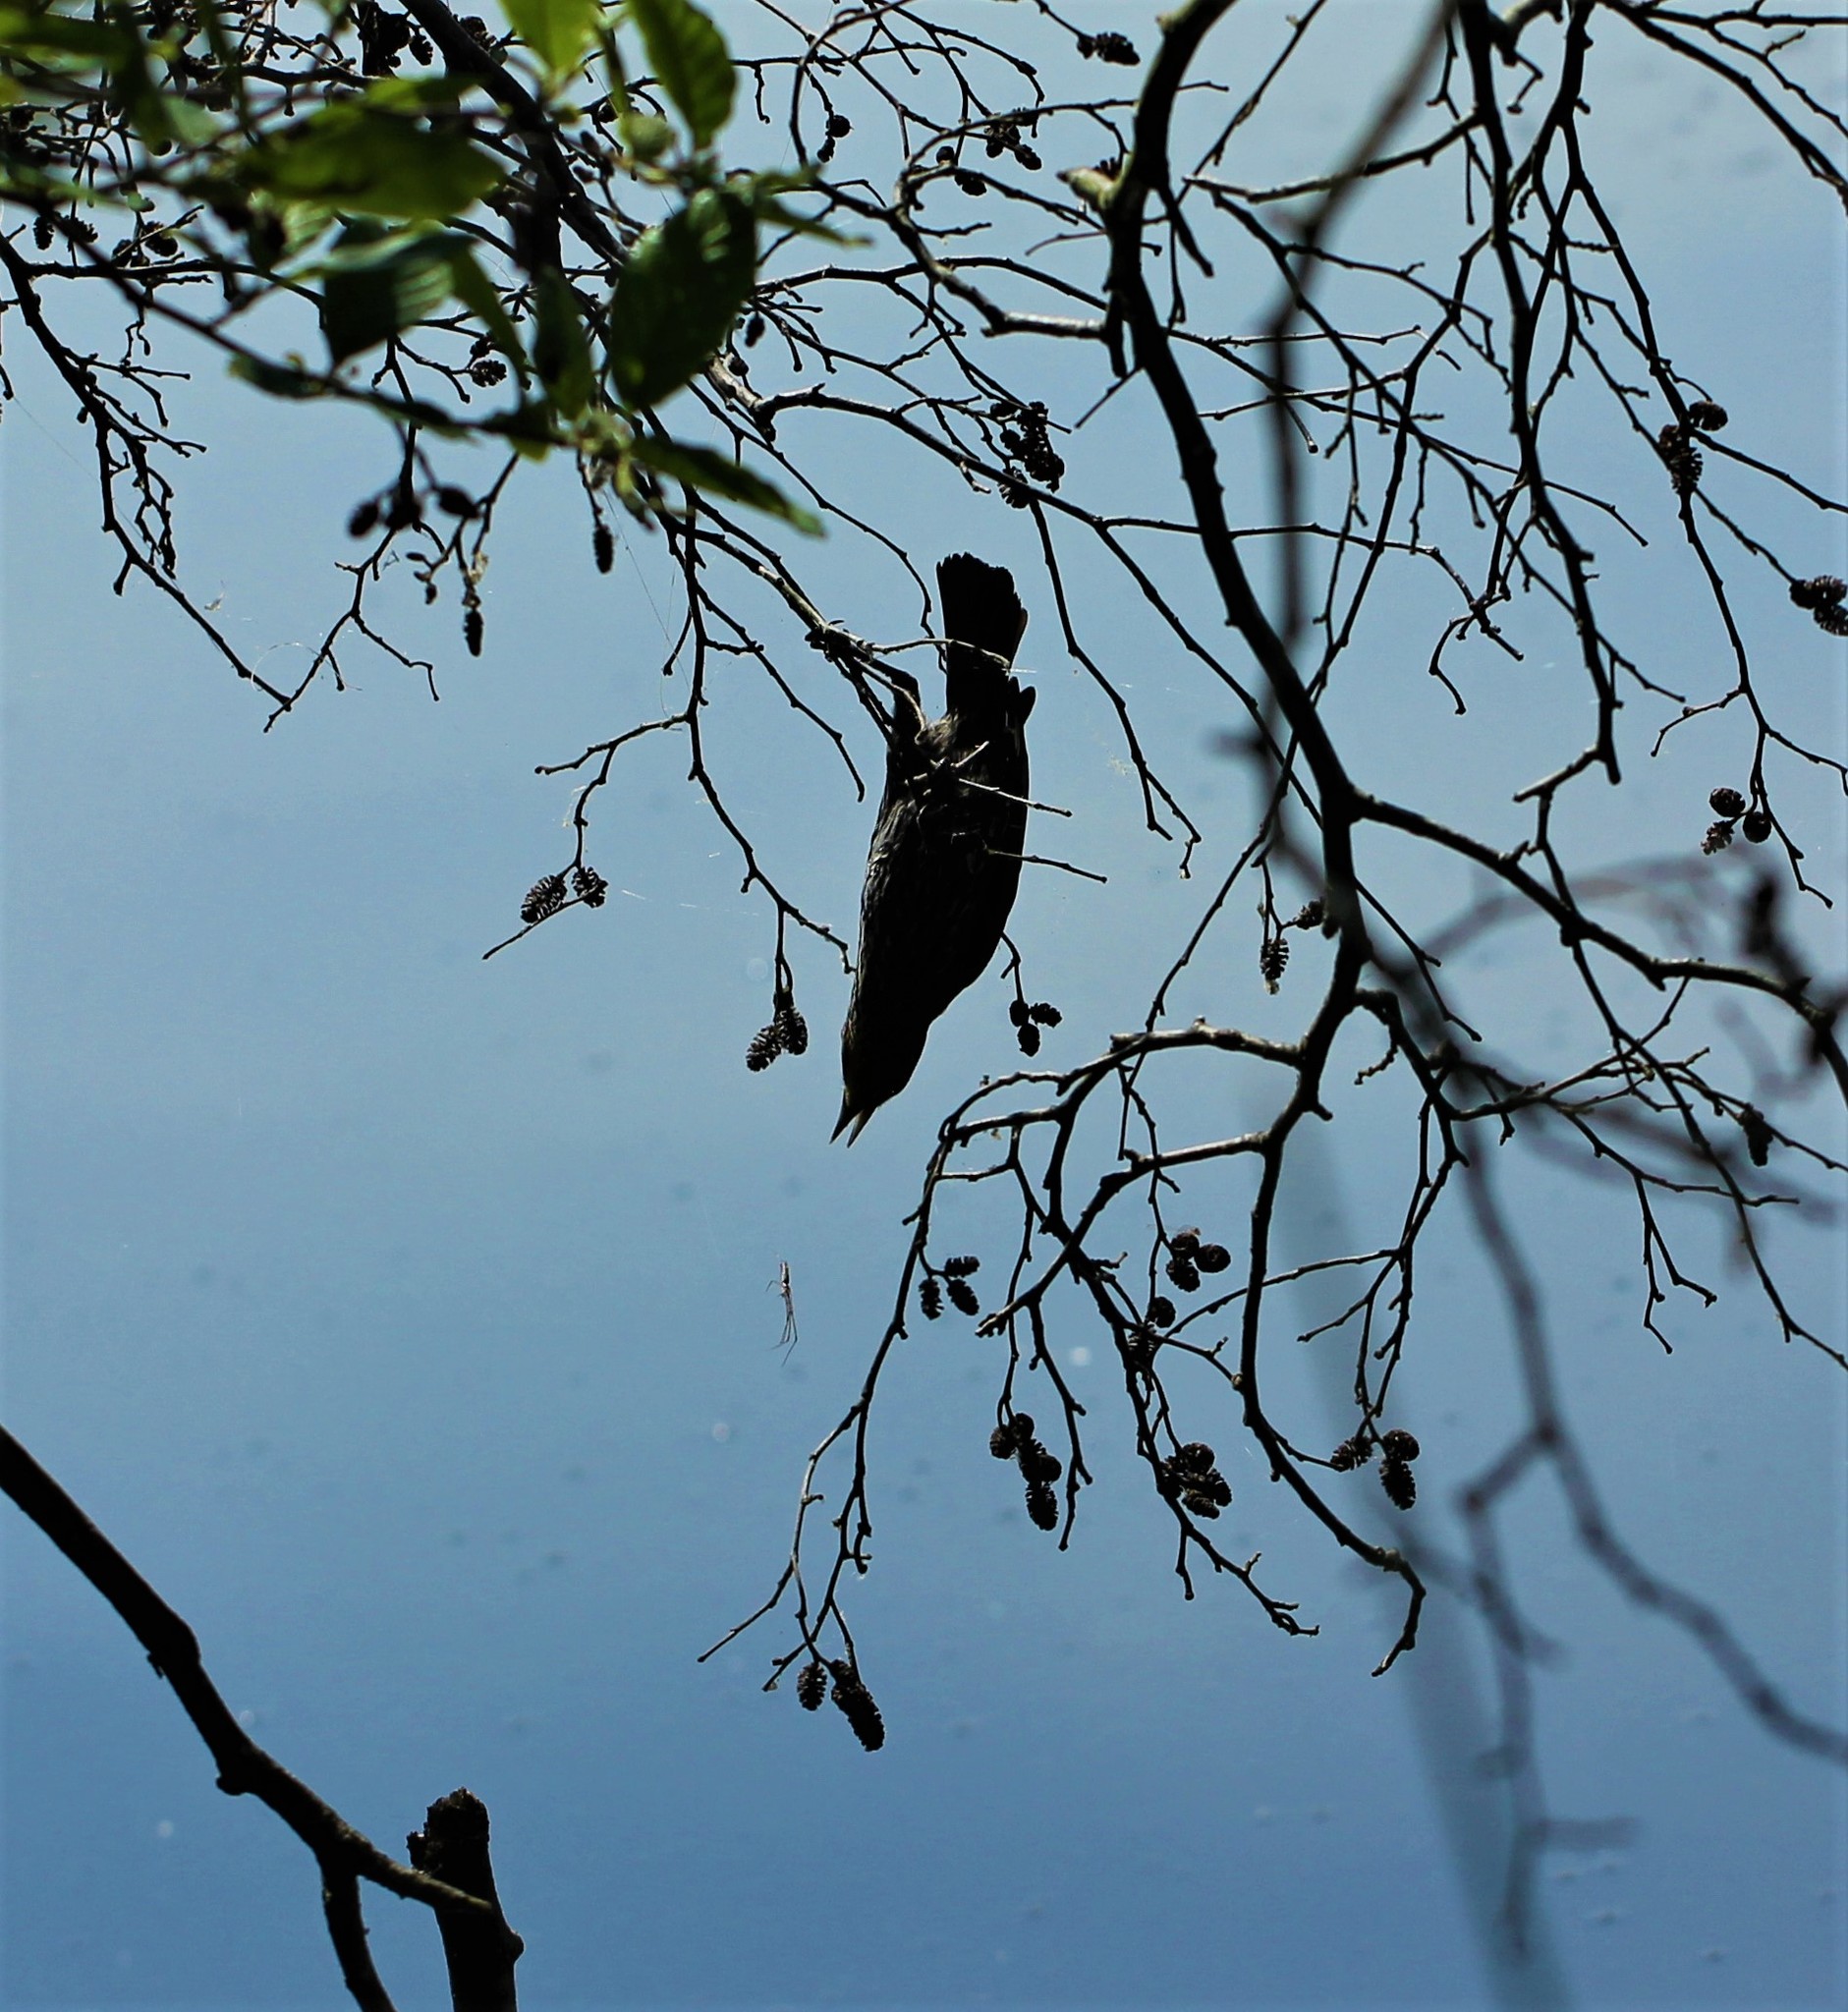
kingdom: Animalia
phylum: Chordata
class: Aves
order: Passeriformes
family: Icteridae
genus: Agelaius
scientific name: Agelaius phoeniceus
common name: Red-winged blackbird
